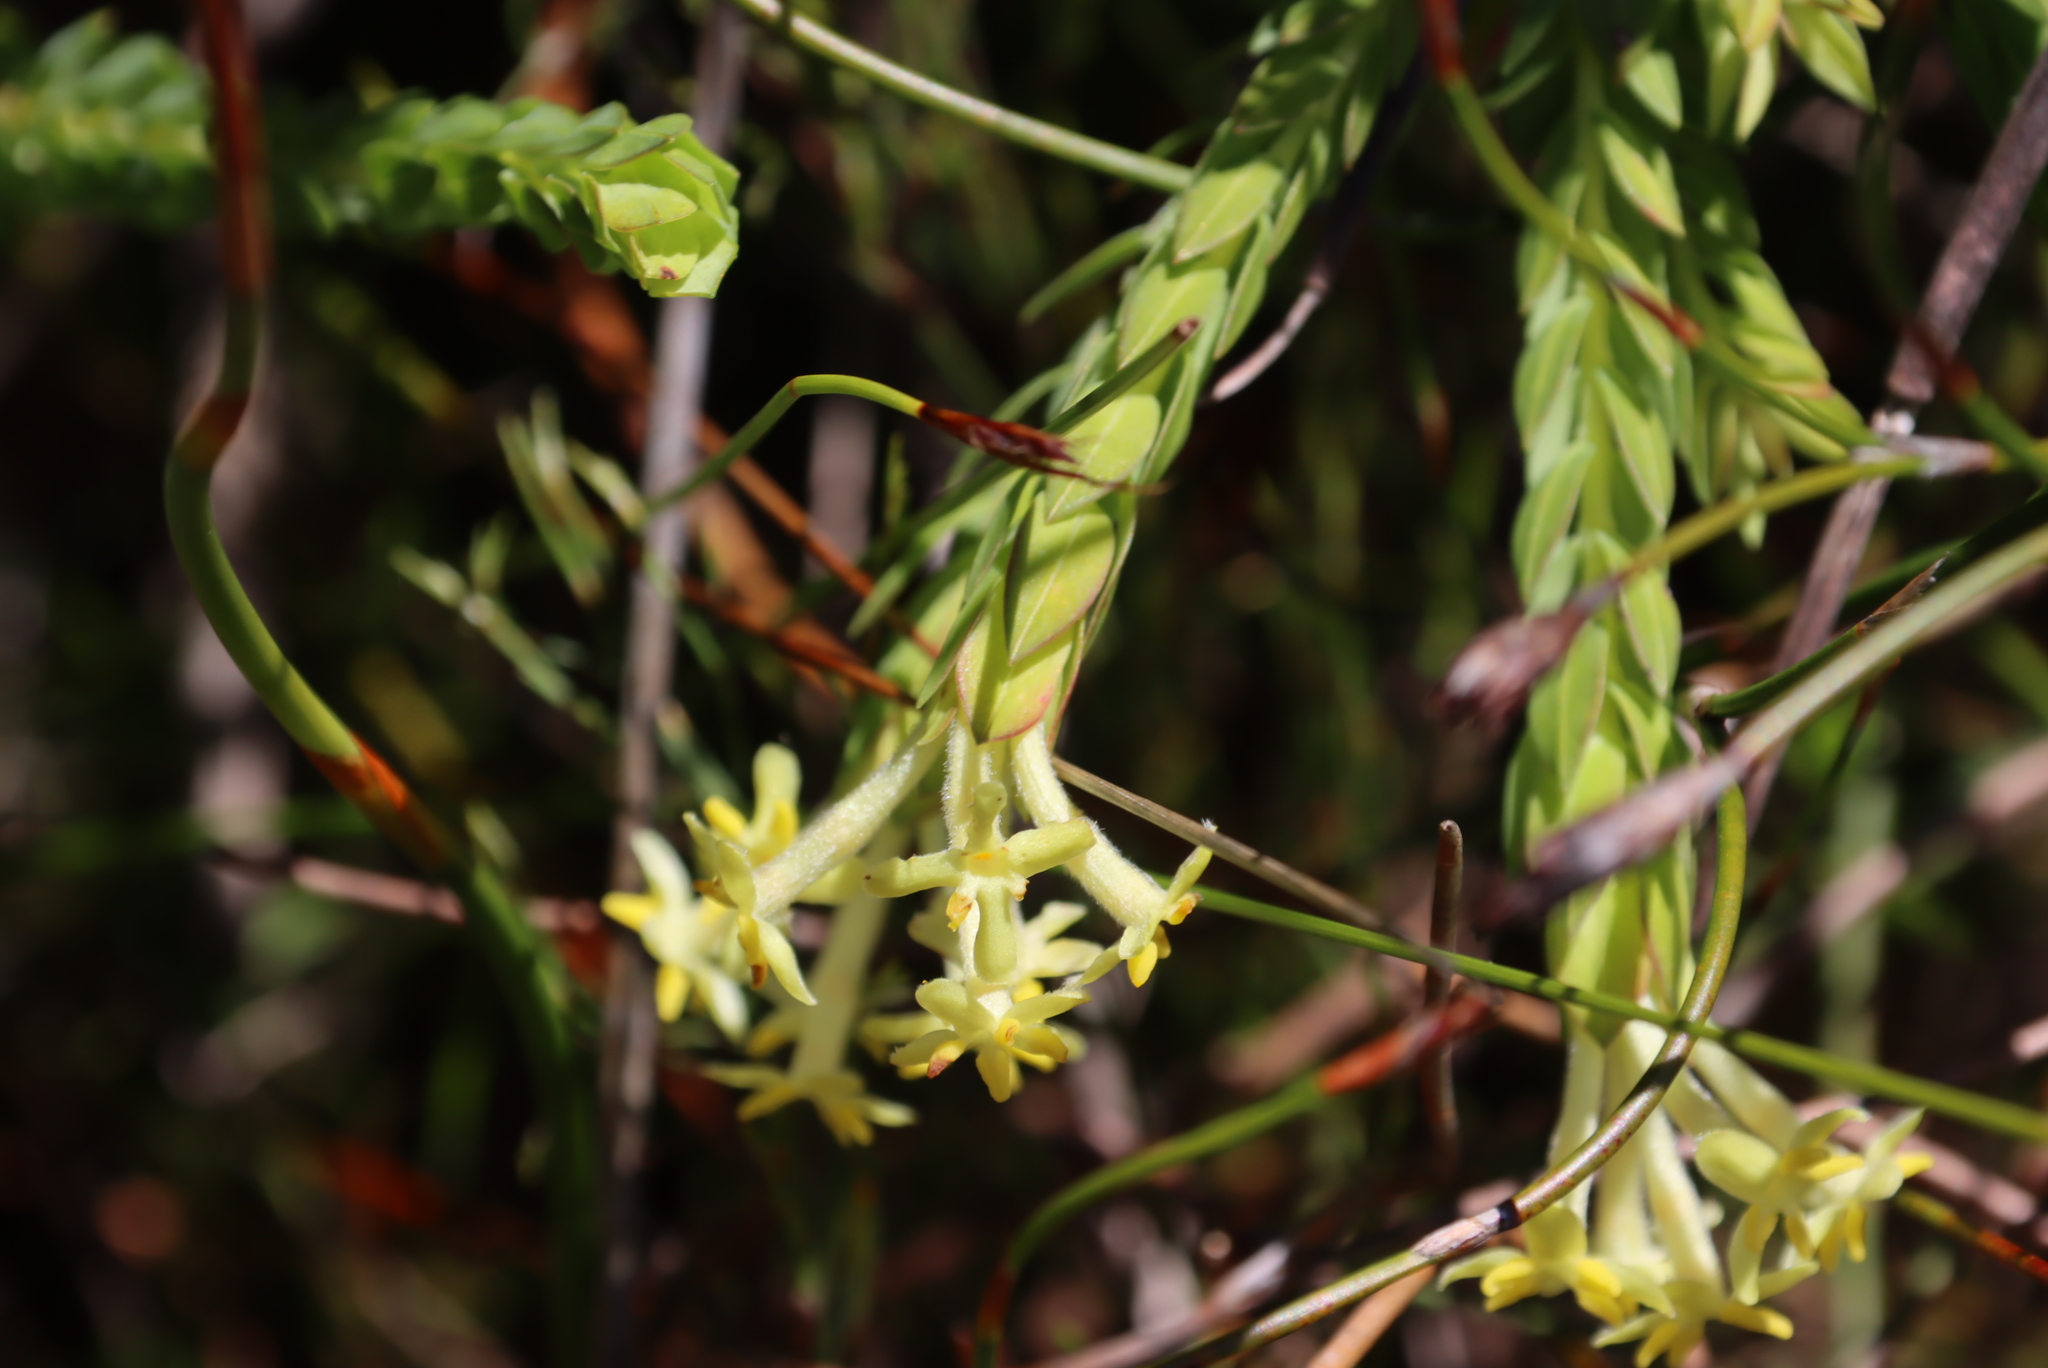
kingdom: Plantae
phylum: Tracheophyta
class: Magnoliopsida
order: Malvales
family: Thymelaeaceae
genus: Gnidia
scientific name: Gnidia oppositifolia
